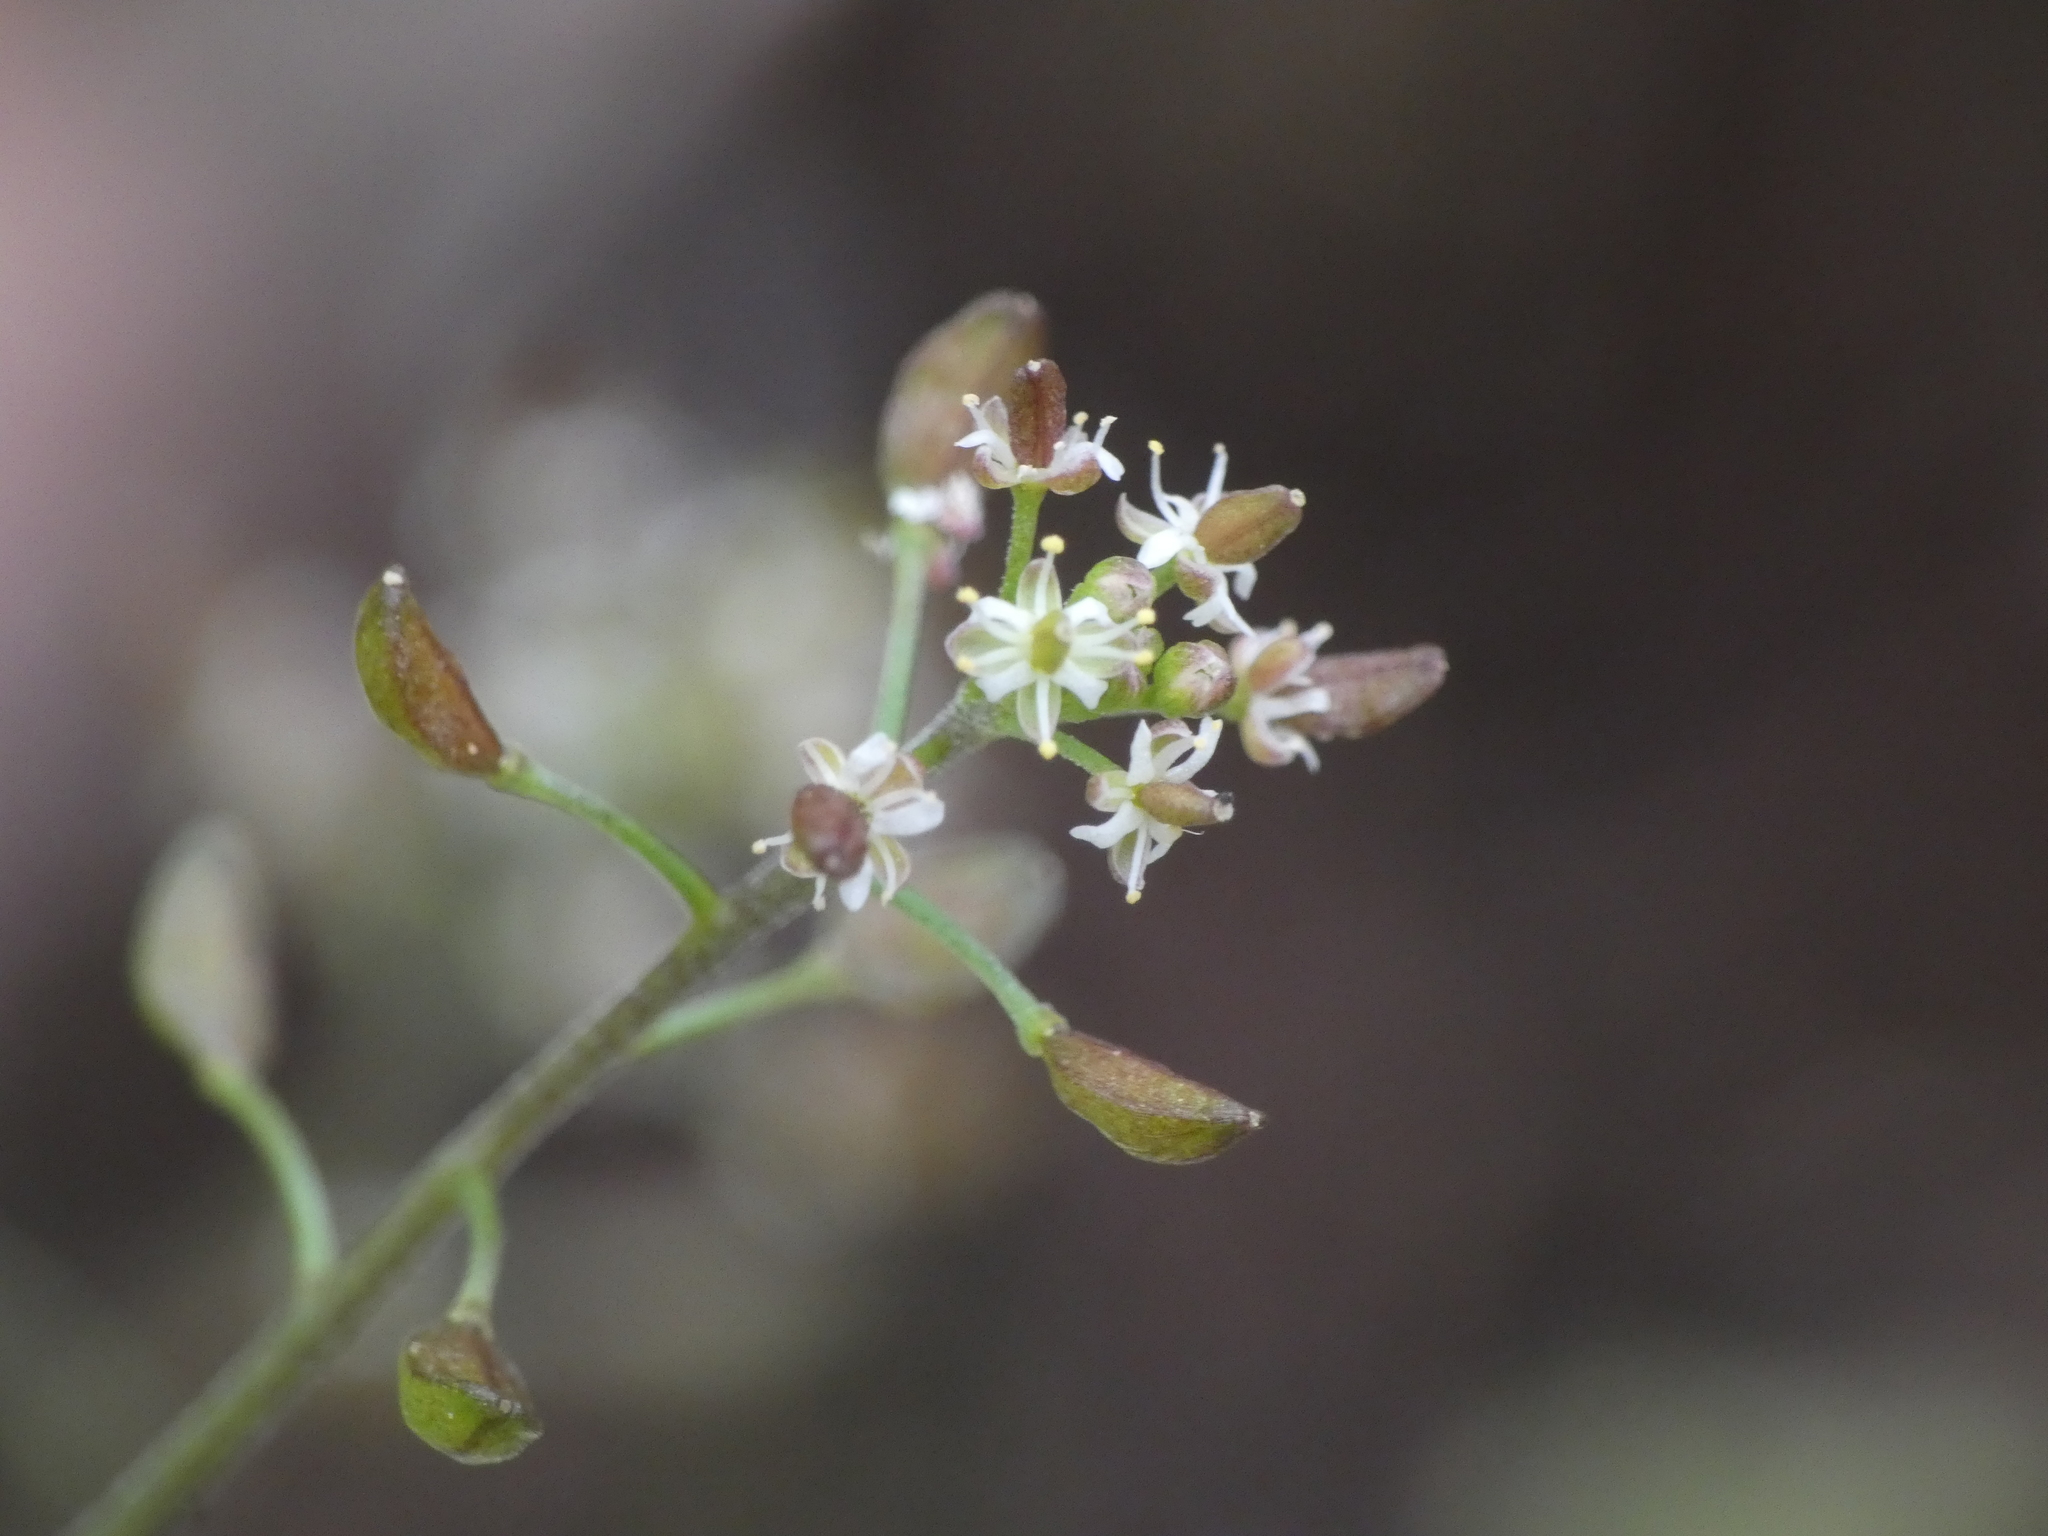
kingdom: Plantae
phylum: Tracheophyta
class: Magnoliopsida
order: Brassicales
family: Brassicaceae
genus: Hornungia
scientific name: Hornungia petraea
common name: Hutchinsia
